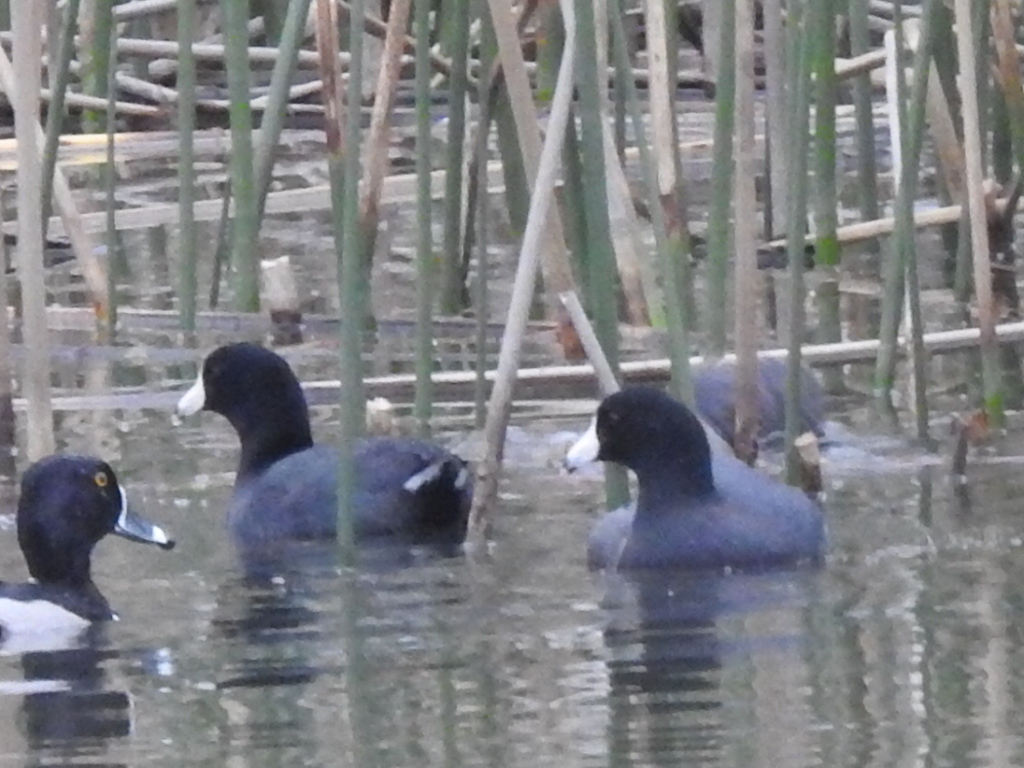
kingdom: Animalia
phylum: Chordata
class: Aves
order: Gruiformes
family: Rallidae
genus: Fulica
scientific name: Fulica americana
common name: American coot
